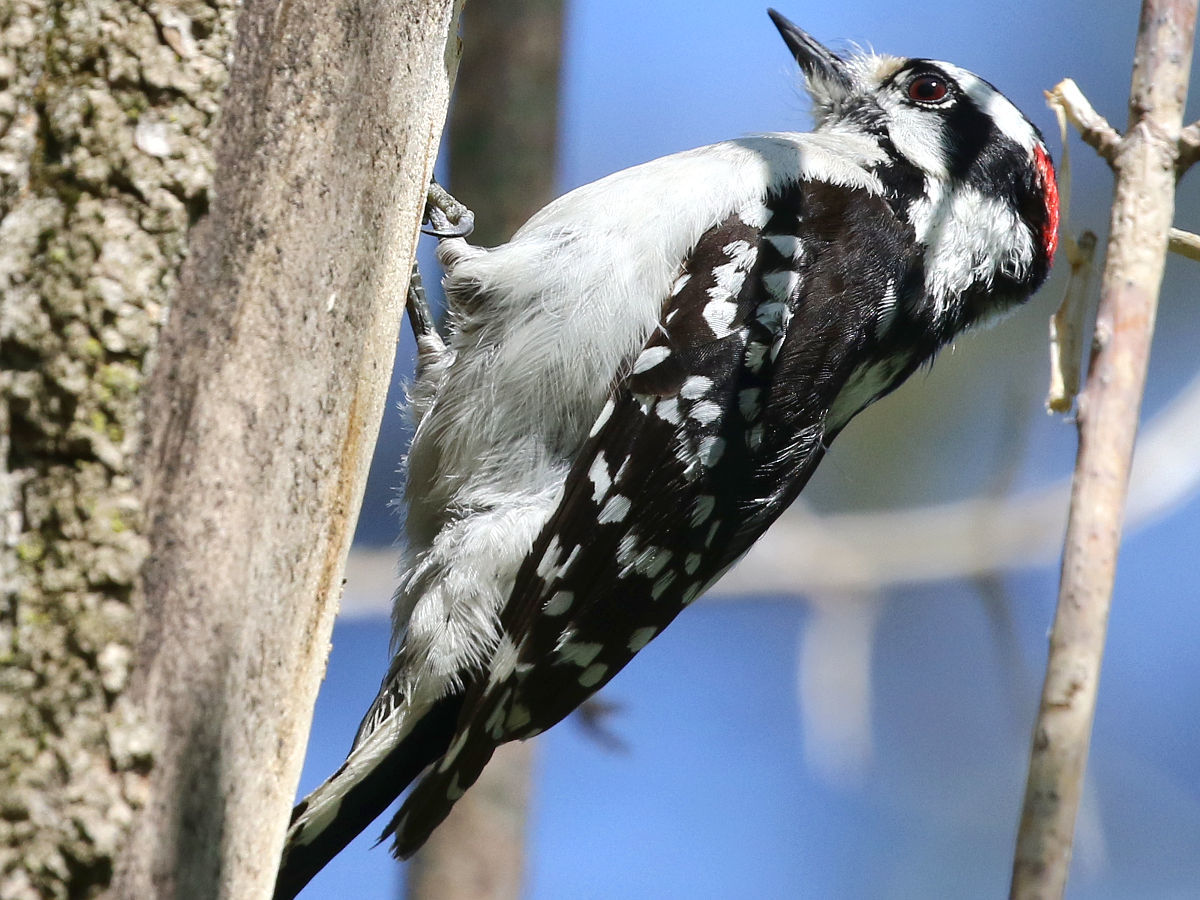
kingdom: Animalia
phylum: Chordata
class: Aves
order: Piciformes
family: Picidae
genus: Dryobates
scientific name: Dryobates pubescens
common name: Downy woodpecker
